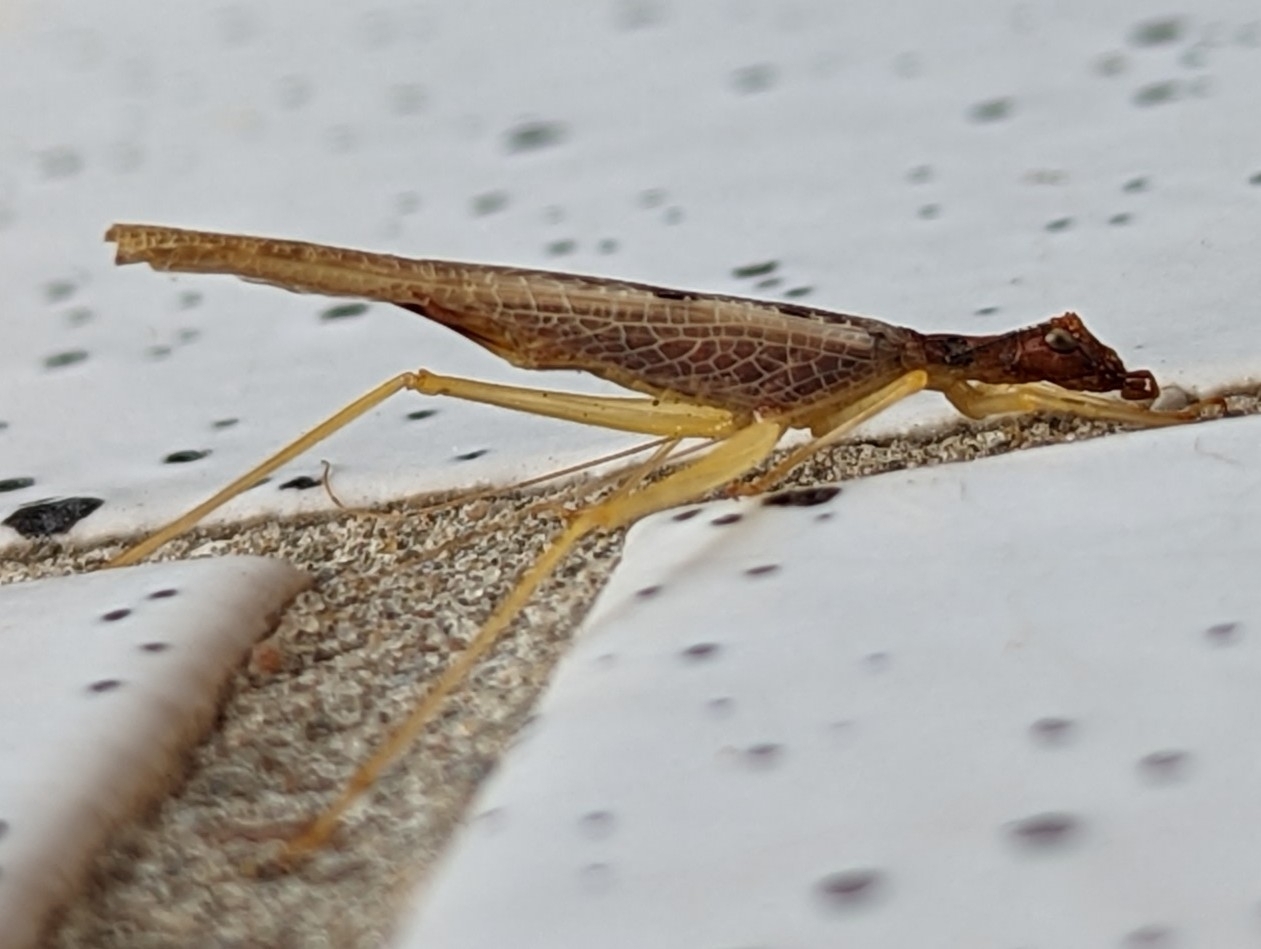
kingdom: Animalia
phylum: Arthropoda
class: Insecta
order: Orthoptera
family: Gryllidae
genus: Neoxabea
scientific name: Neoxabea bipunctata
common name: Two-spotted tree cricket
